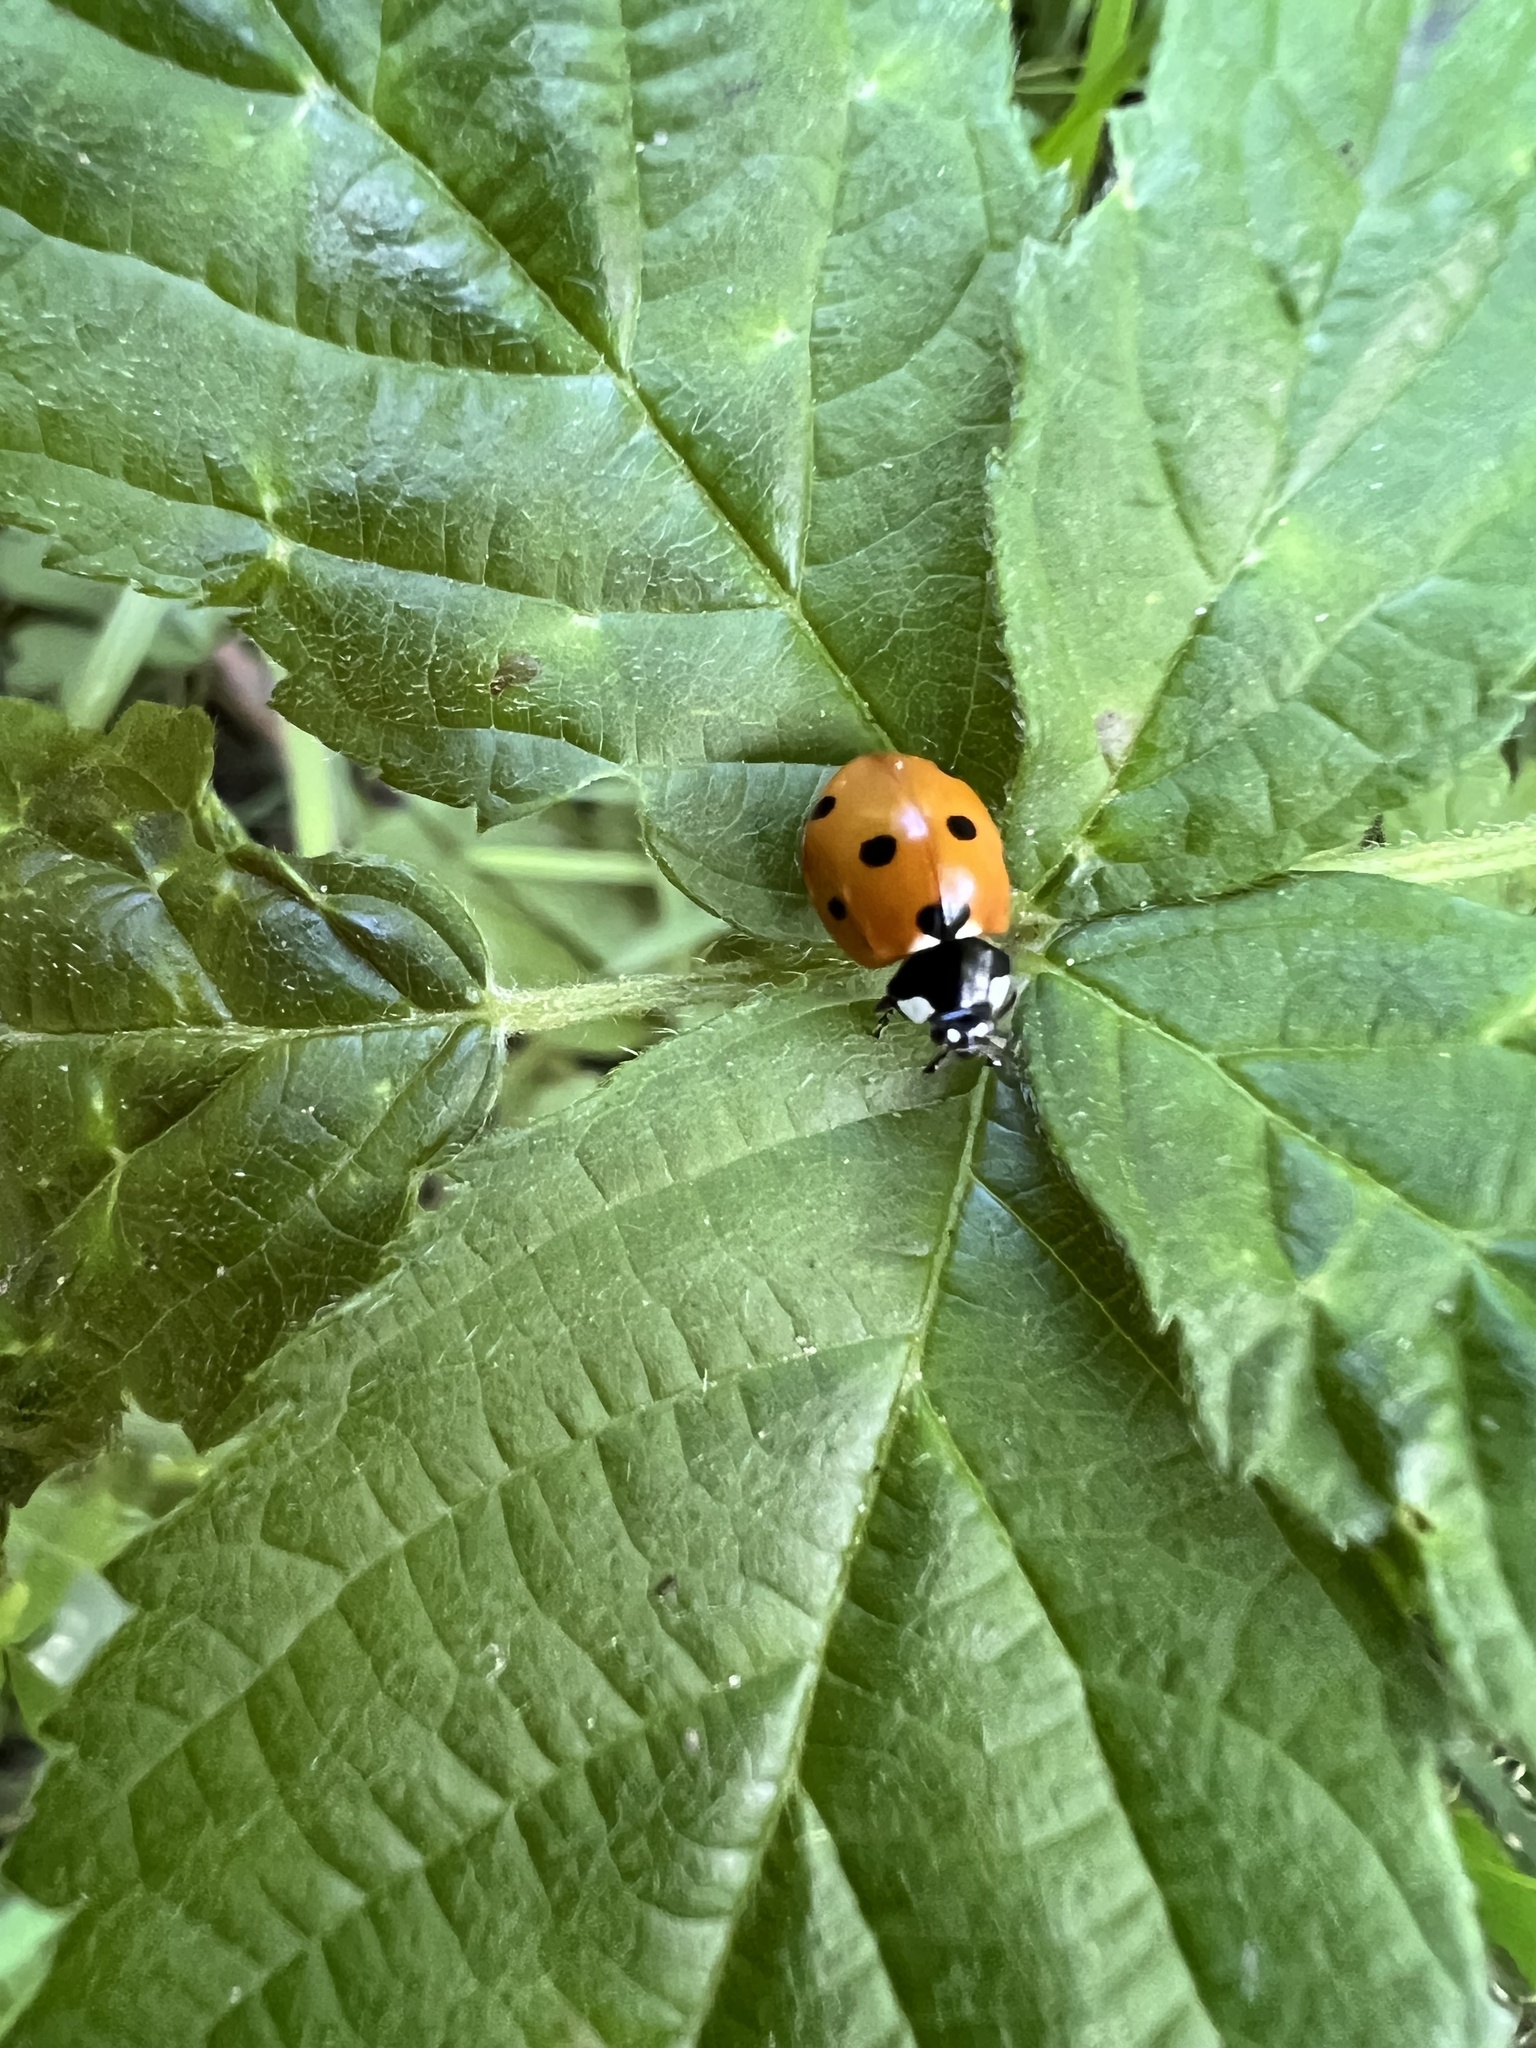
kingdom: Animalia
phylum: Arthropoda
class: Insecta
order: Coleoptera
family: Coccinellidae
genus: Coccinella
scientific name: Coccinella septempunctata
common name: Sevenspotted lady beetle
